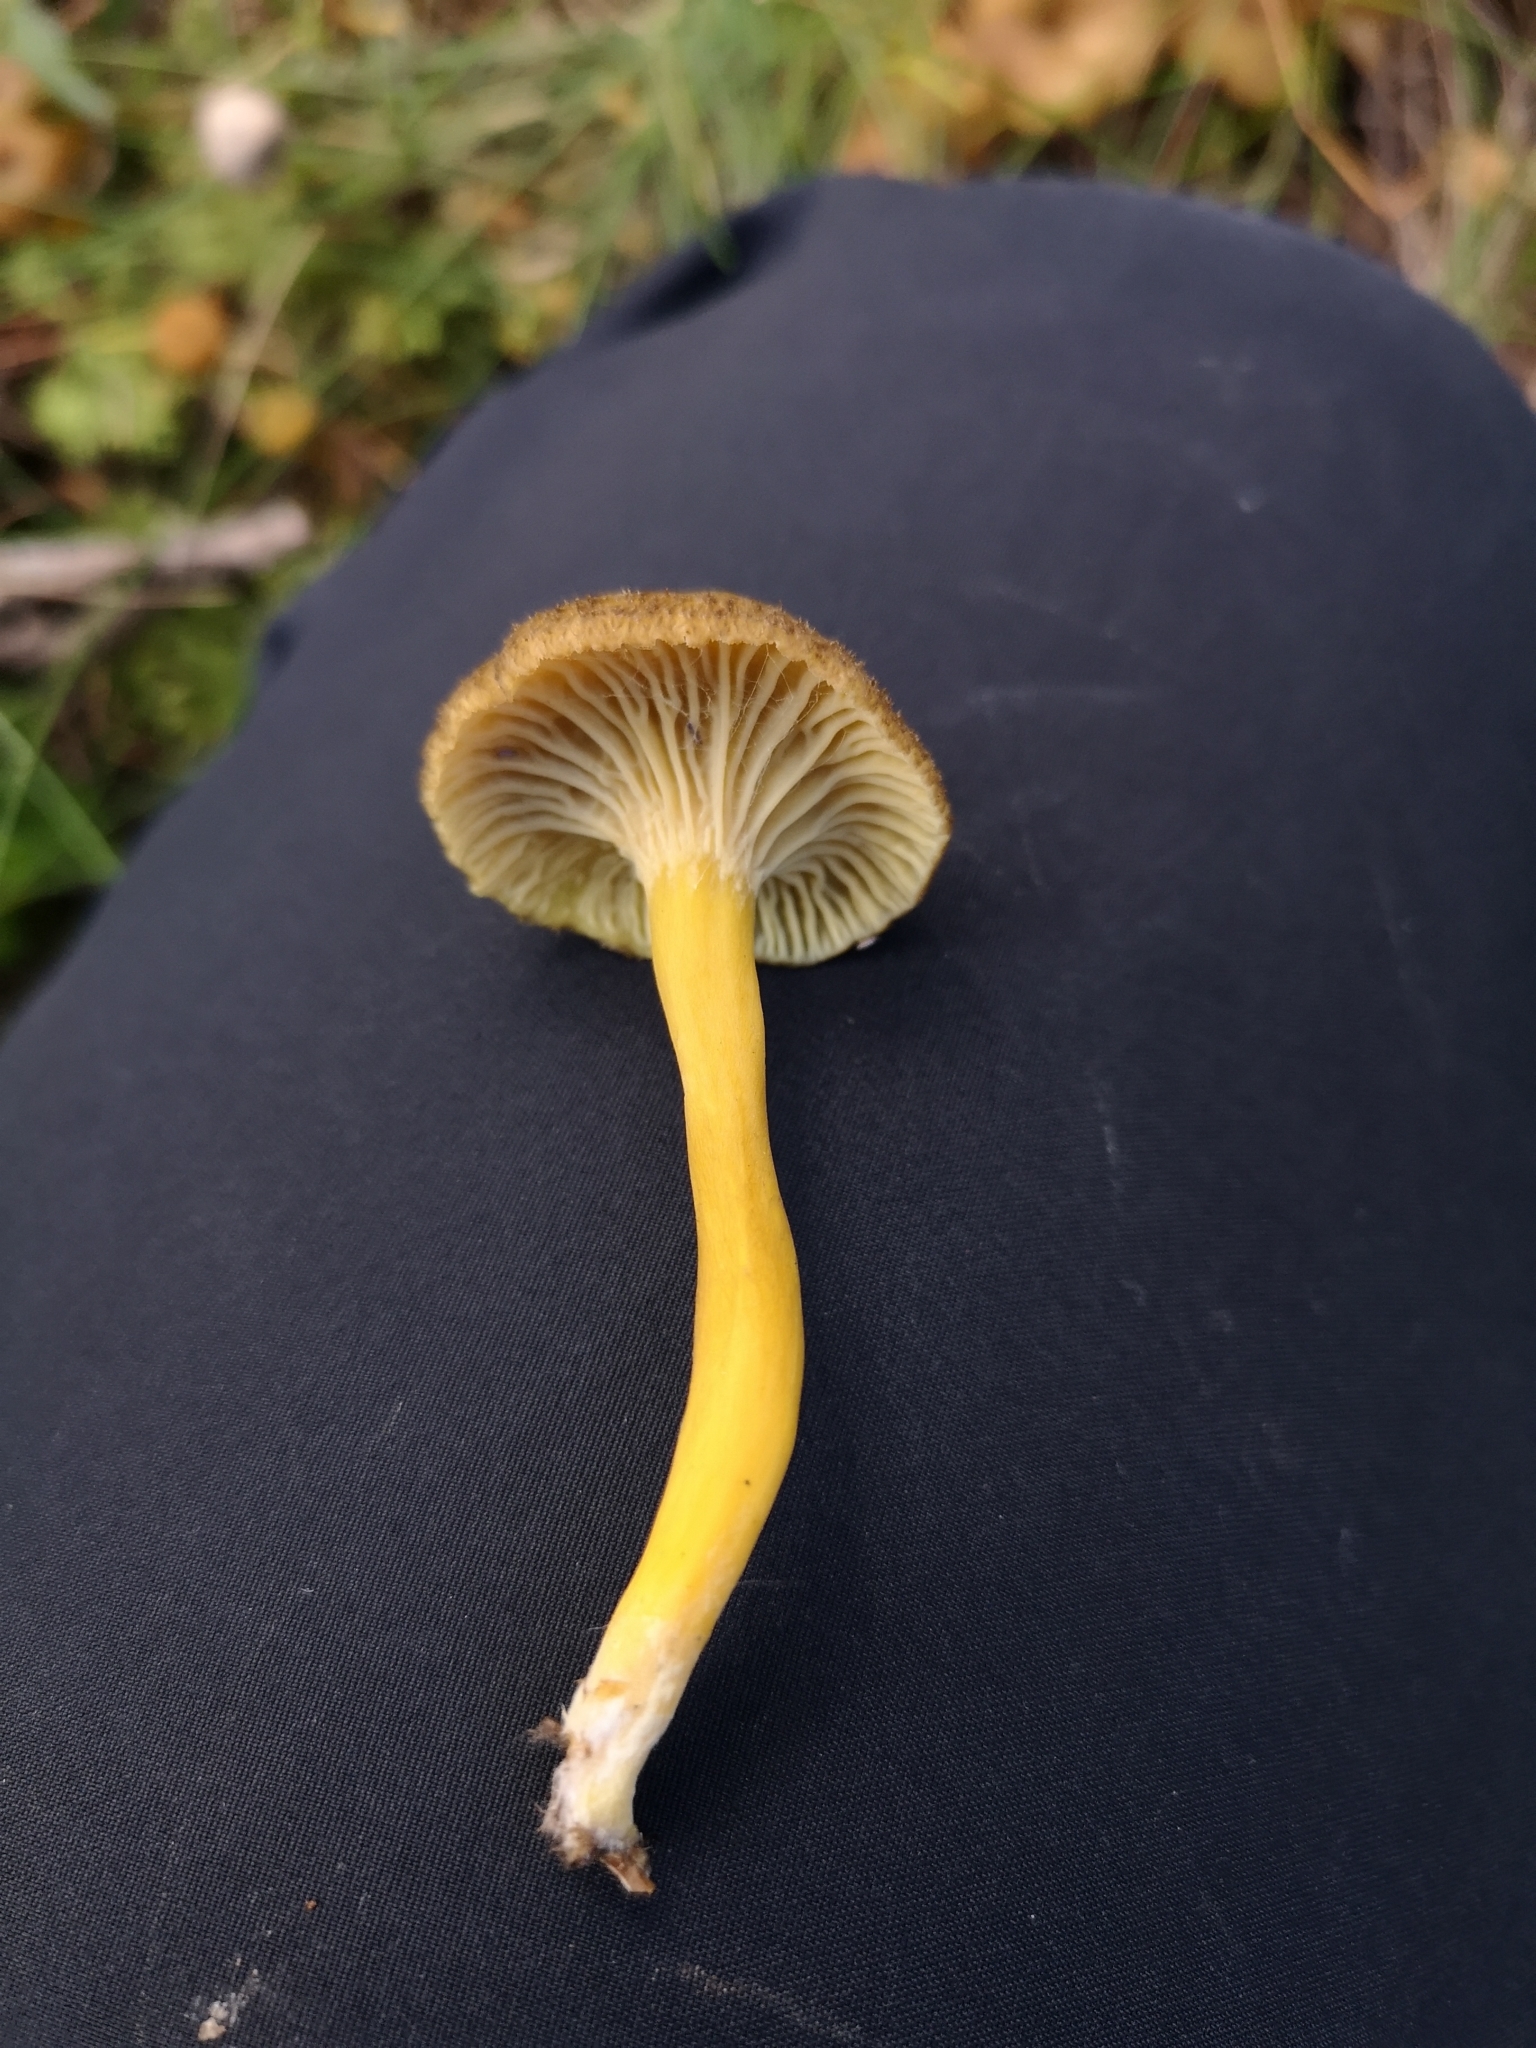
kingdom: Fungi
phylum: Basidiomycota
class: Agaricomycetes
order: Cantharellales
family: Hydnaceae
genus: Craterellus
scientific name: Craterellus tubaeformis
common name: Yellowfoot
